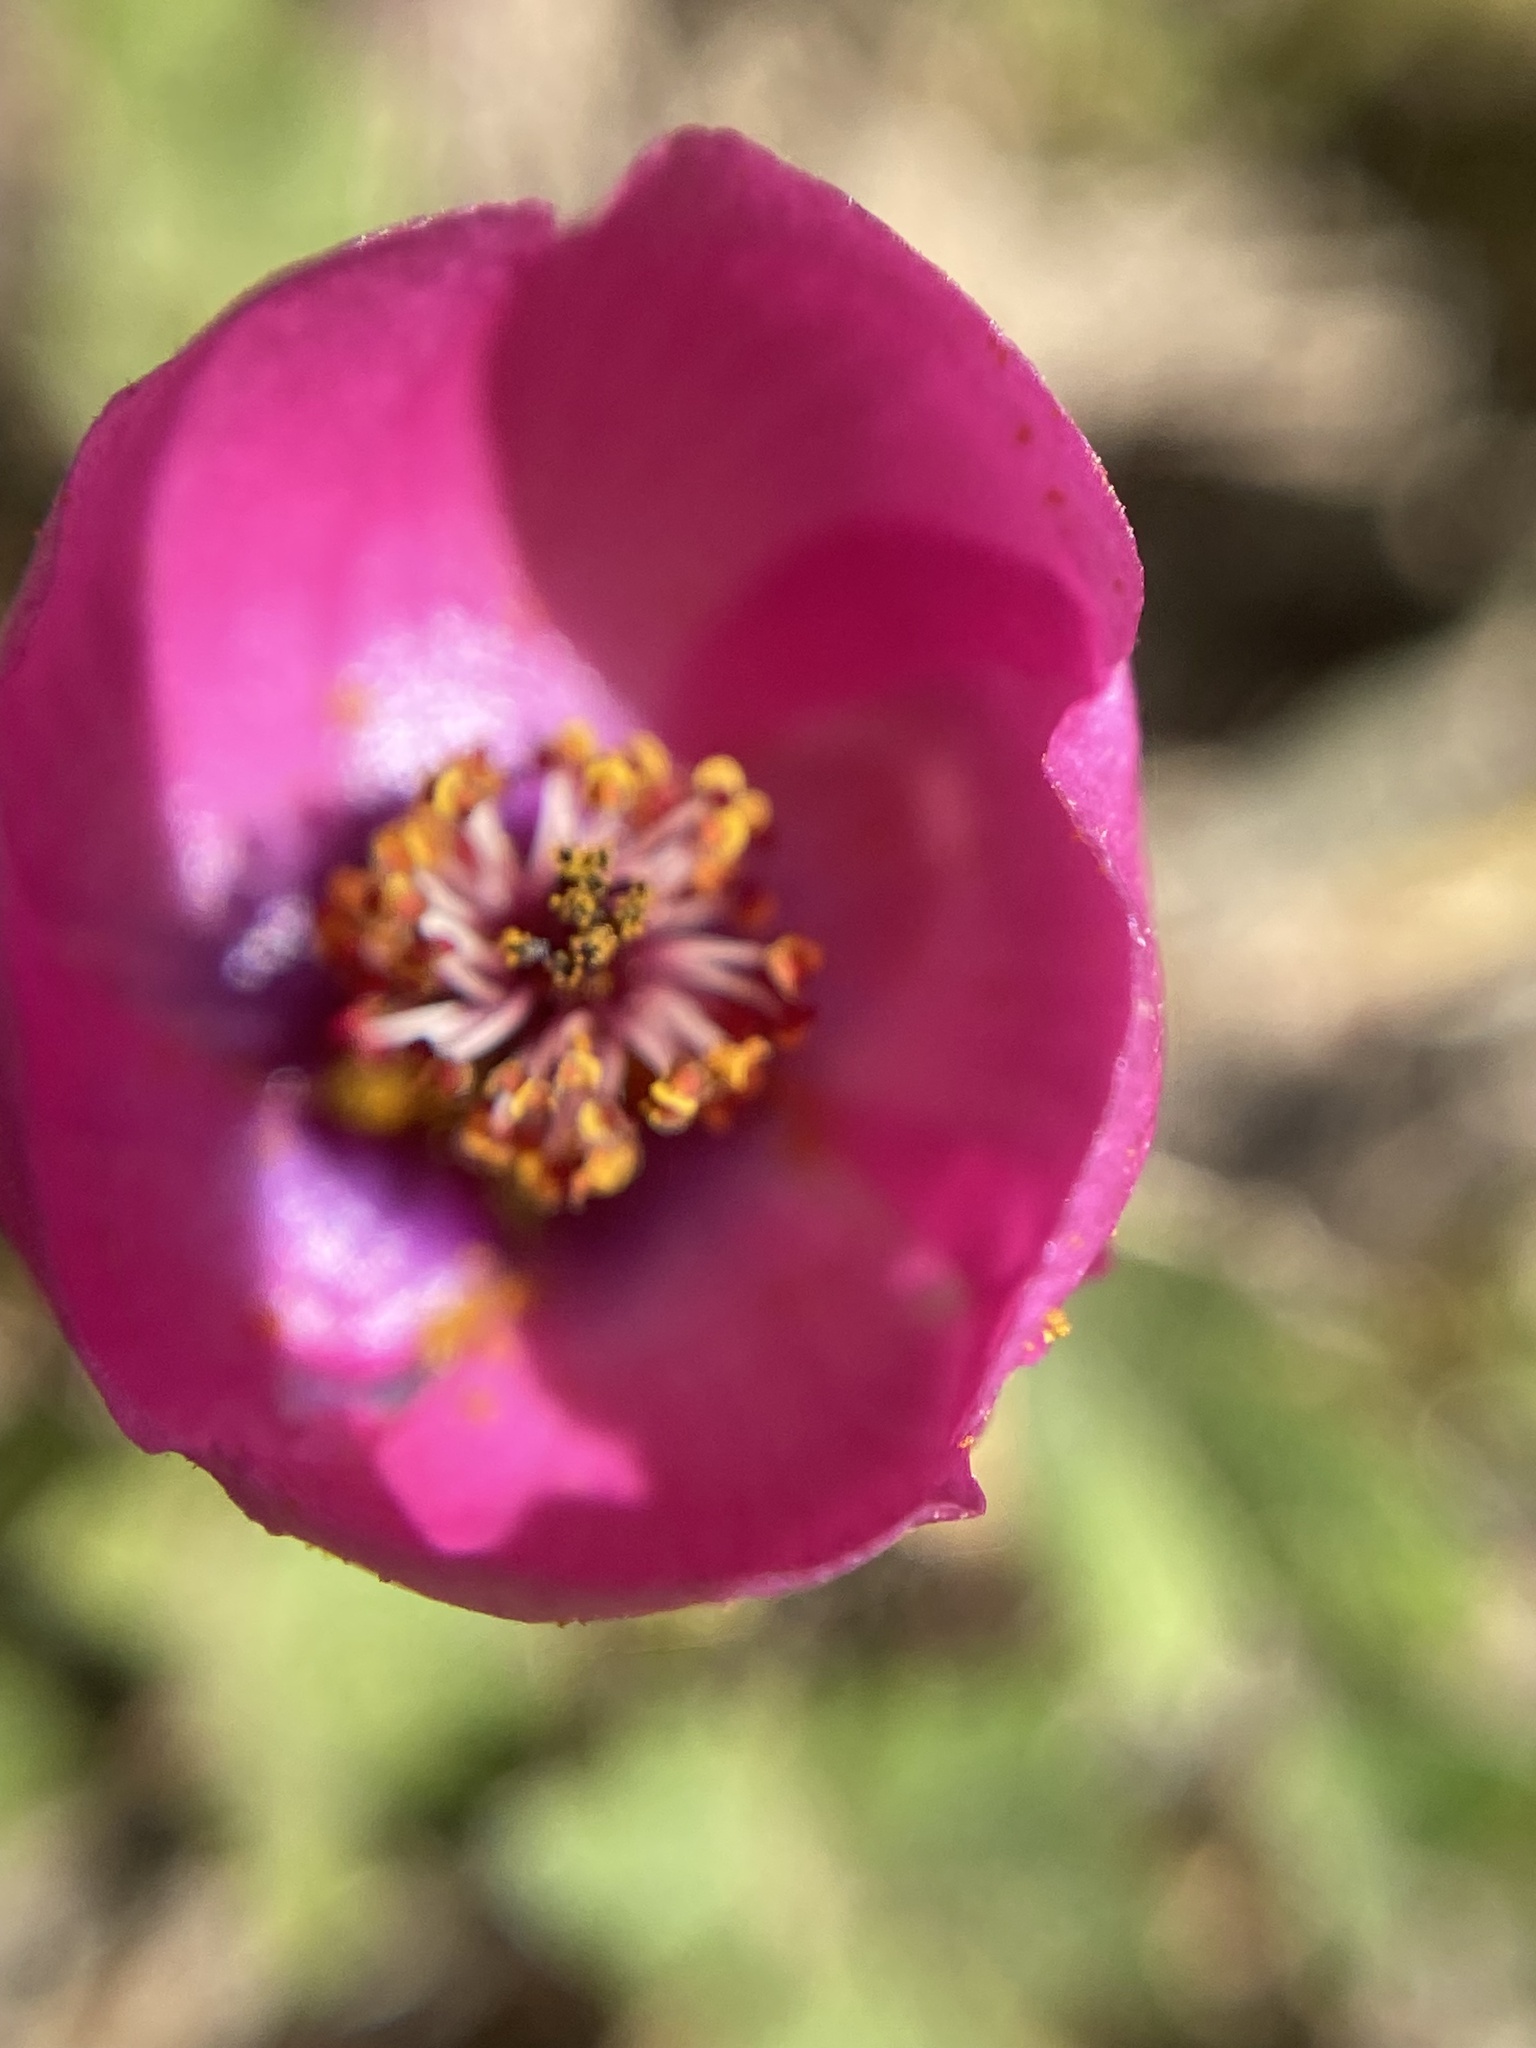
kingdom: Plantae
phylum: Tracheophyta
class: Magnoliopsida
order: Malvales
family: Malvaceae
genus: Modiolastrum
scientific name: Modiolastrum gilliesii
